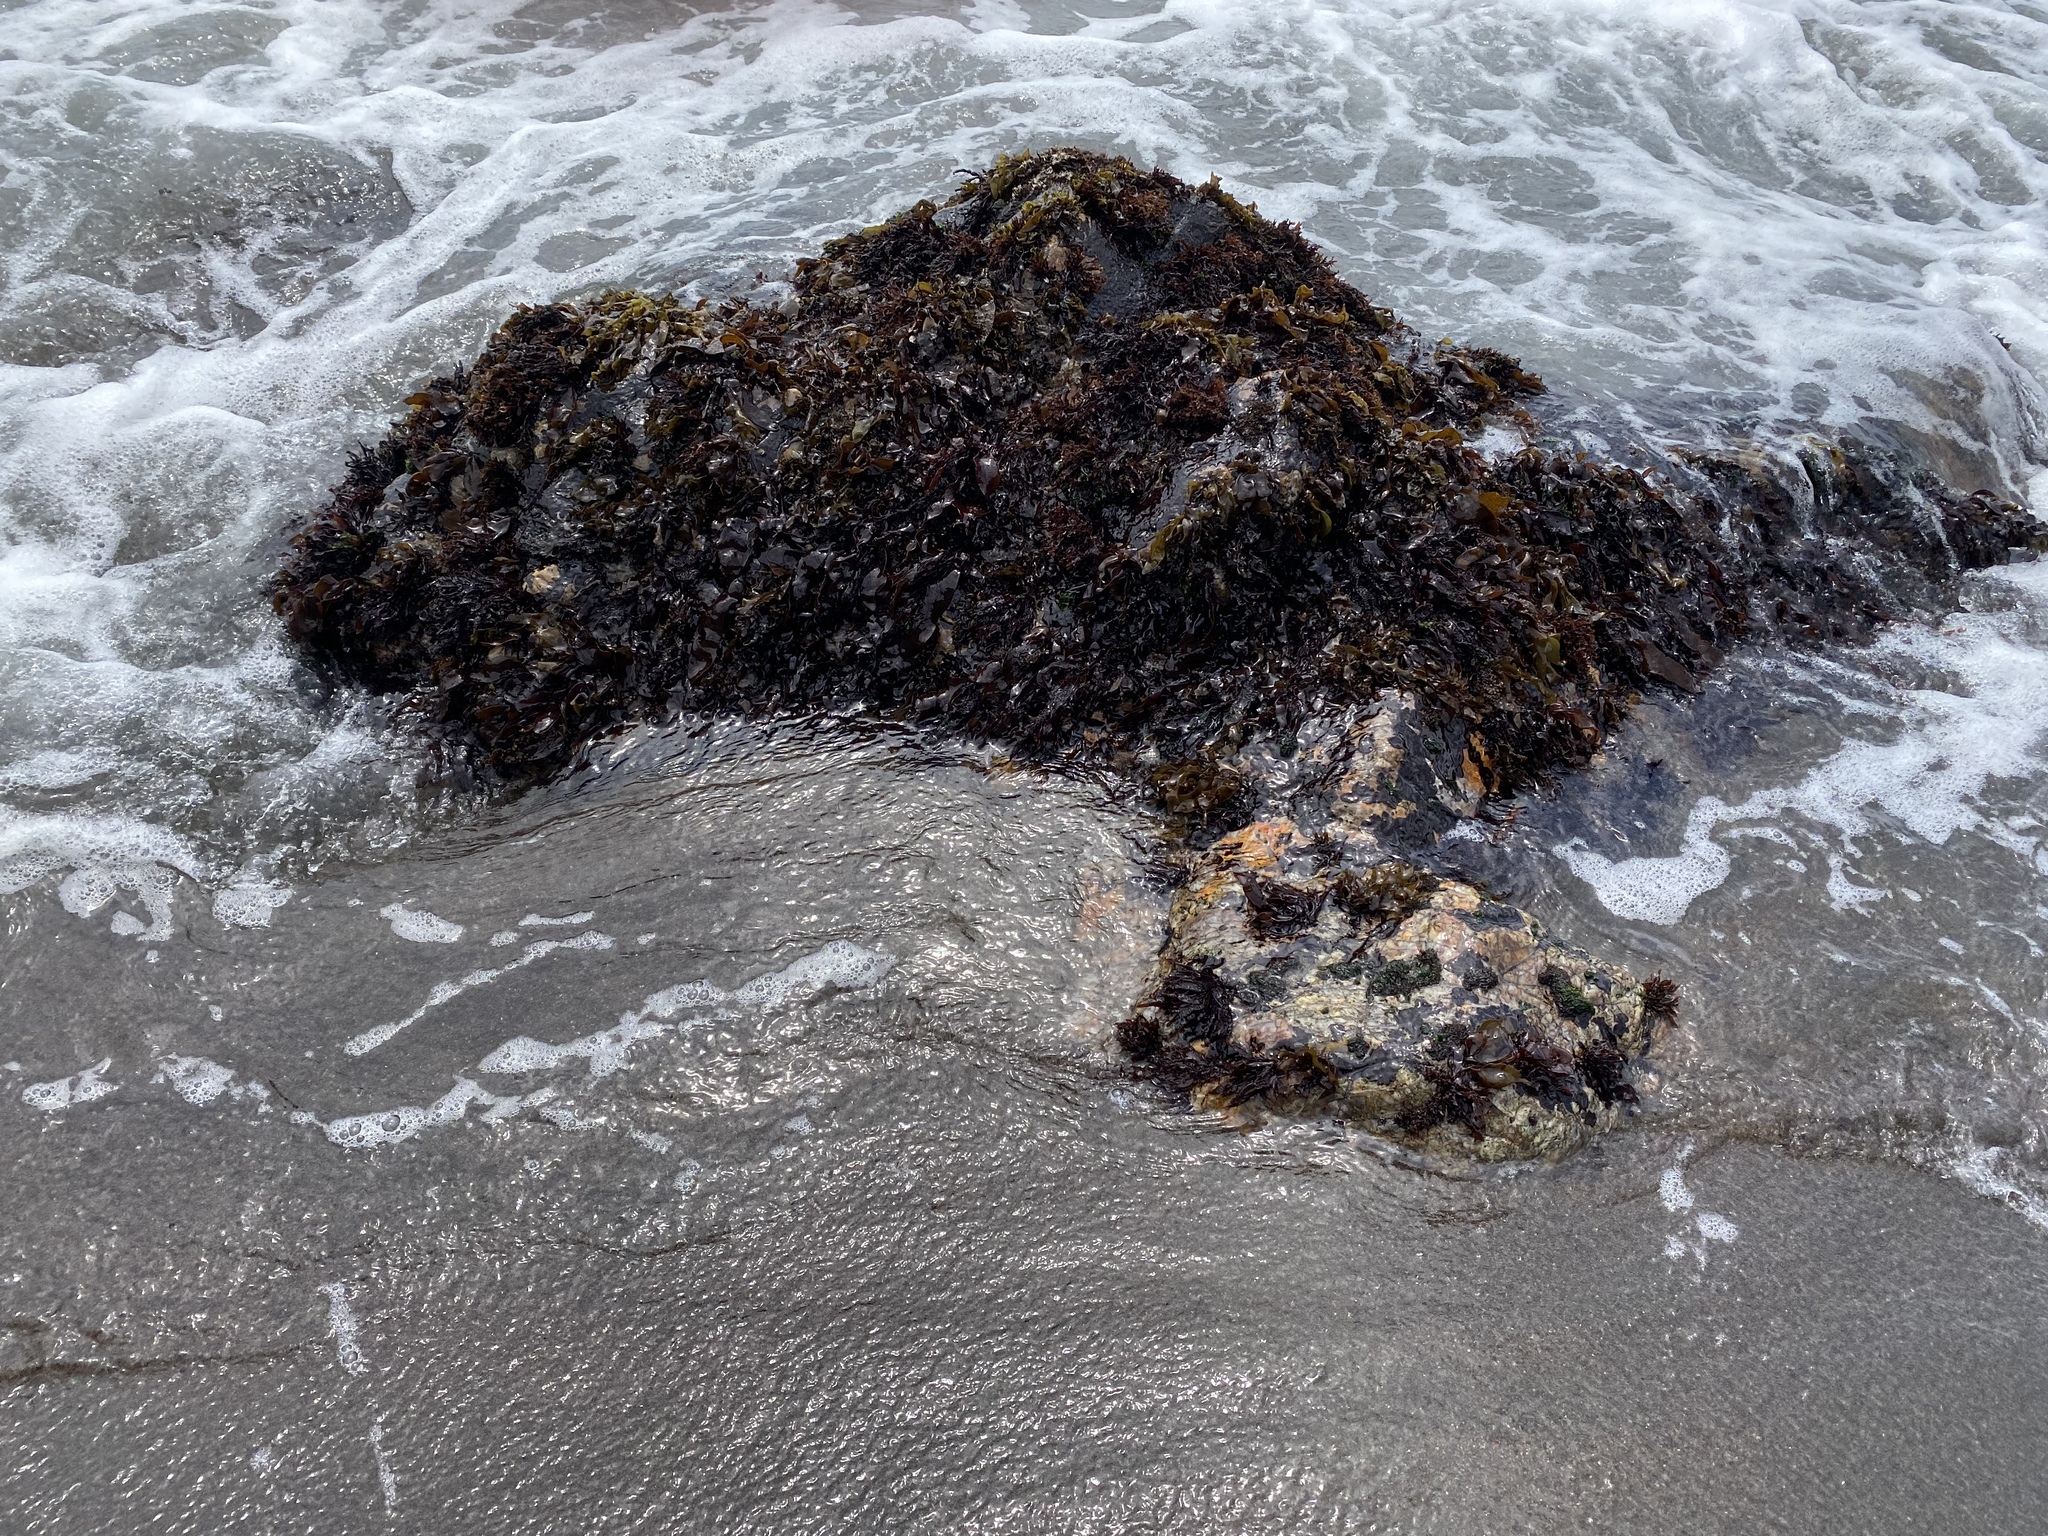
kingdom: Plantae
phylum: Rhodophyta
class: Florideophyceae
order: Gigartinales
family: Phyllophoraceae
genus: Mastocarpus
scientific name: Mastocarpus papillatus
